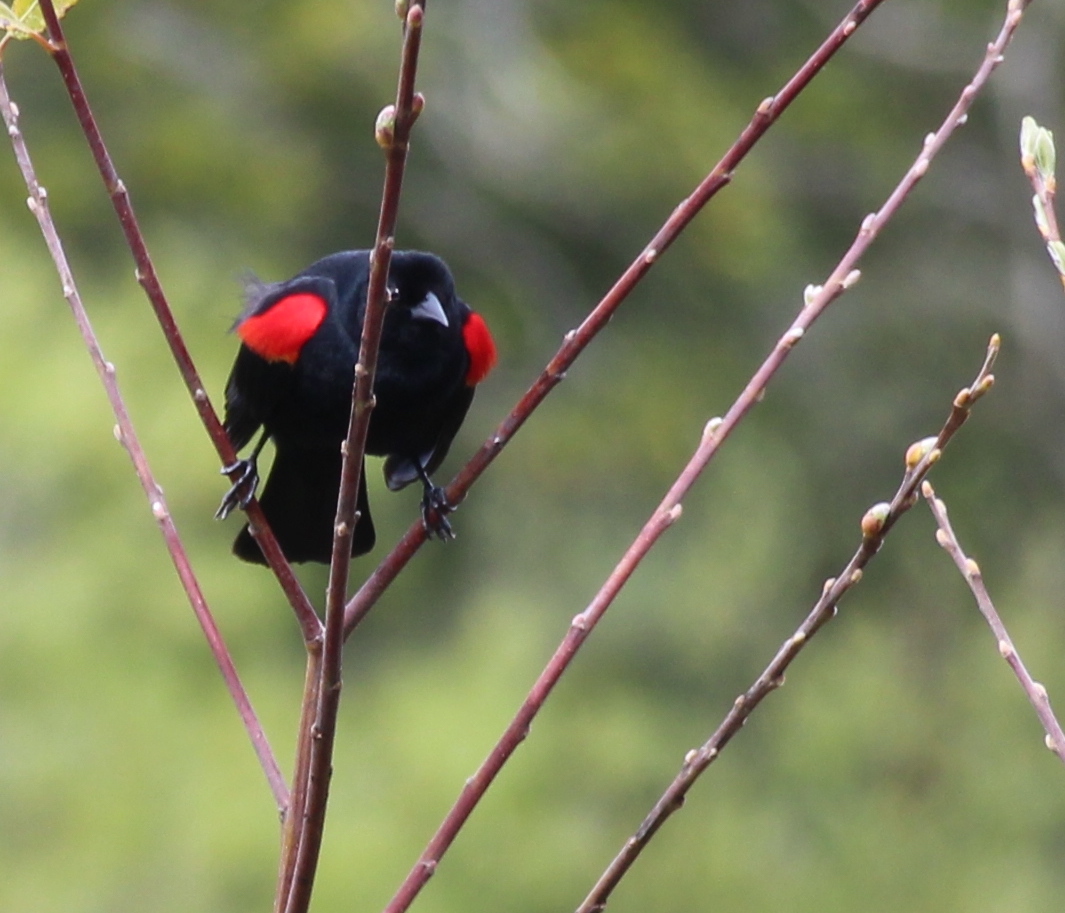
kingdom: Animalia
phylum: Chordata
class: Aves
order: Passeriformes
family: Icteridae
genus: Agelaius
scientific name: Agelaius phoeniceus
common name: Red-winged blackbird
